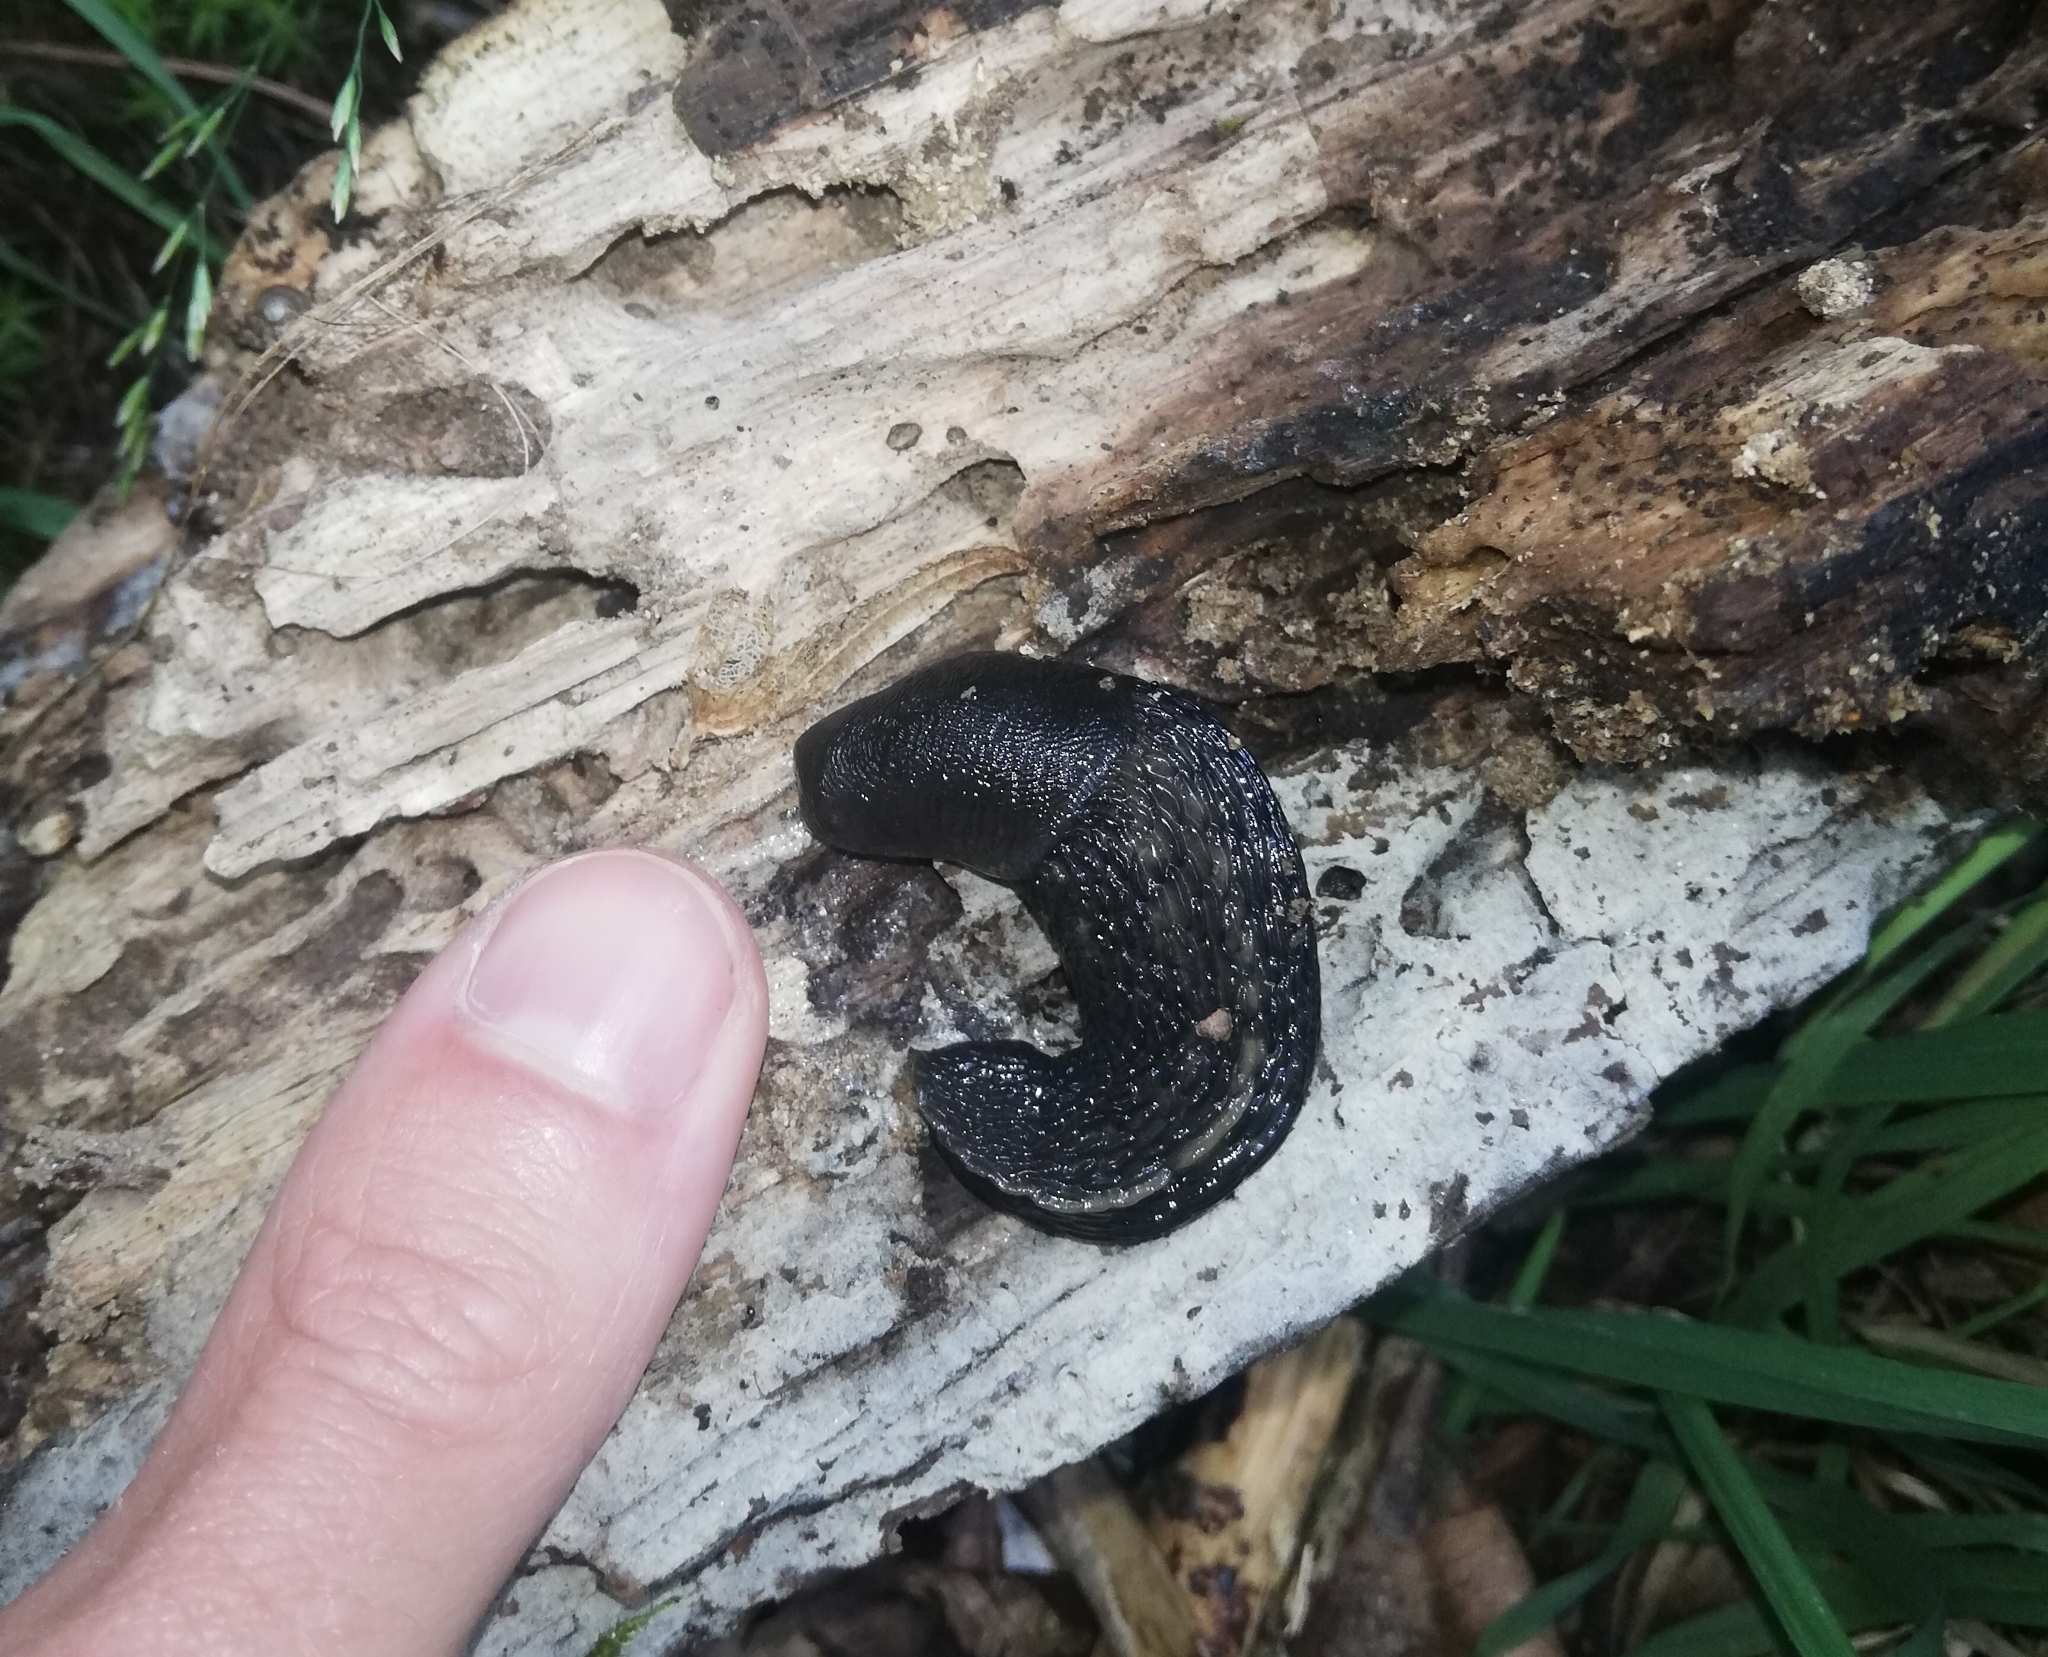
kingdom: Animalia
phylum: Mollusca
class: Gastropoda
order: Stylommatophora
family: Limacidae
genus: Limax
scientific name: Limax cinereoniger
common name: Ash-black slug
